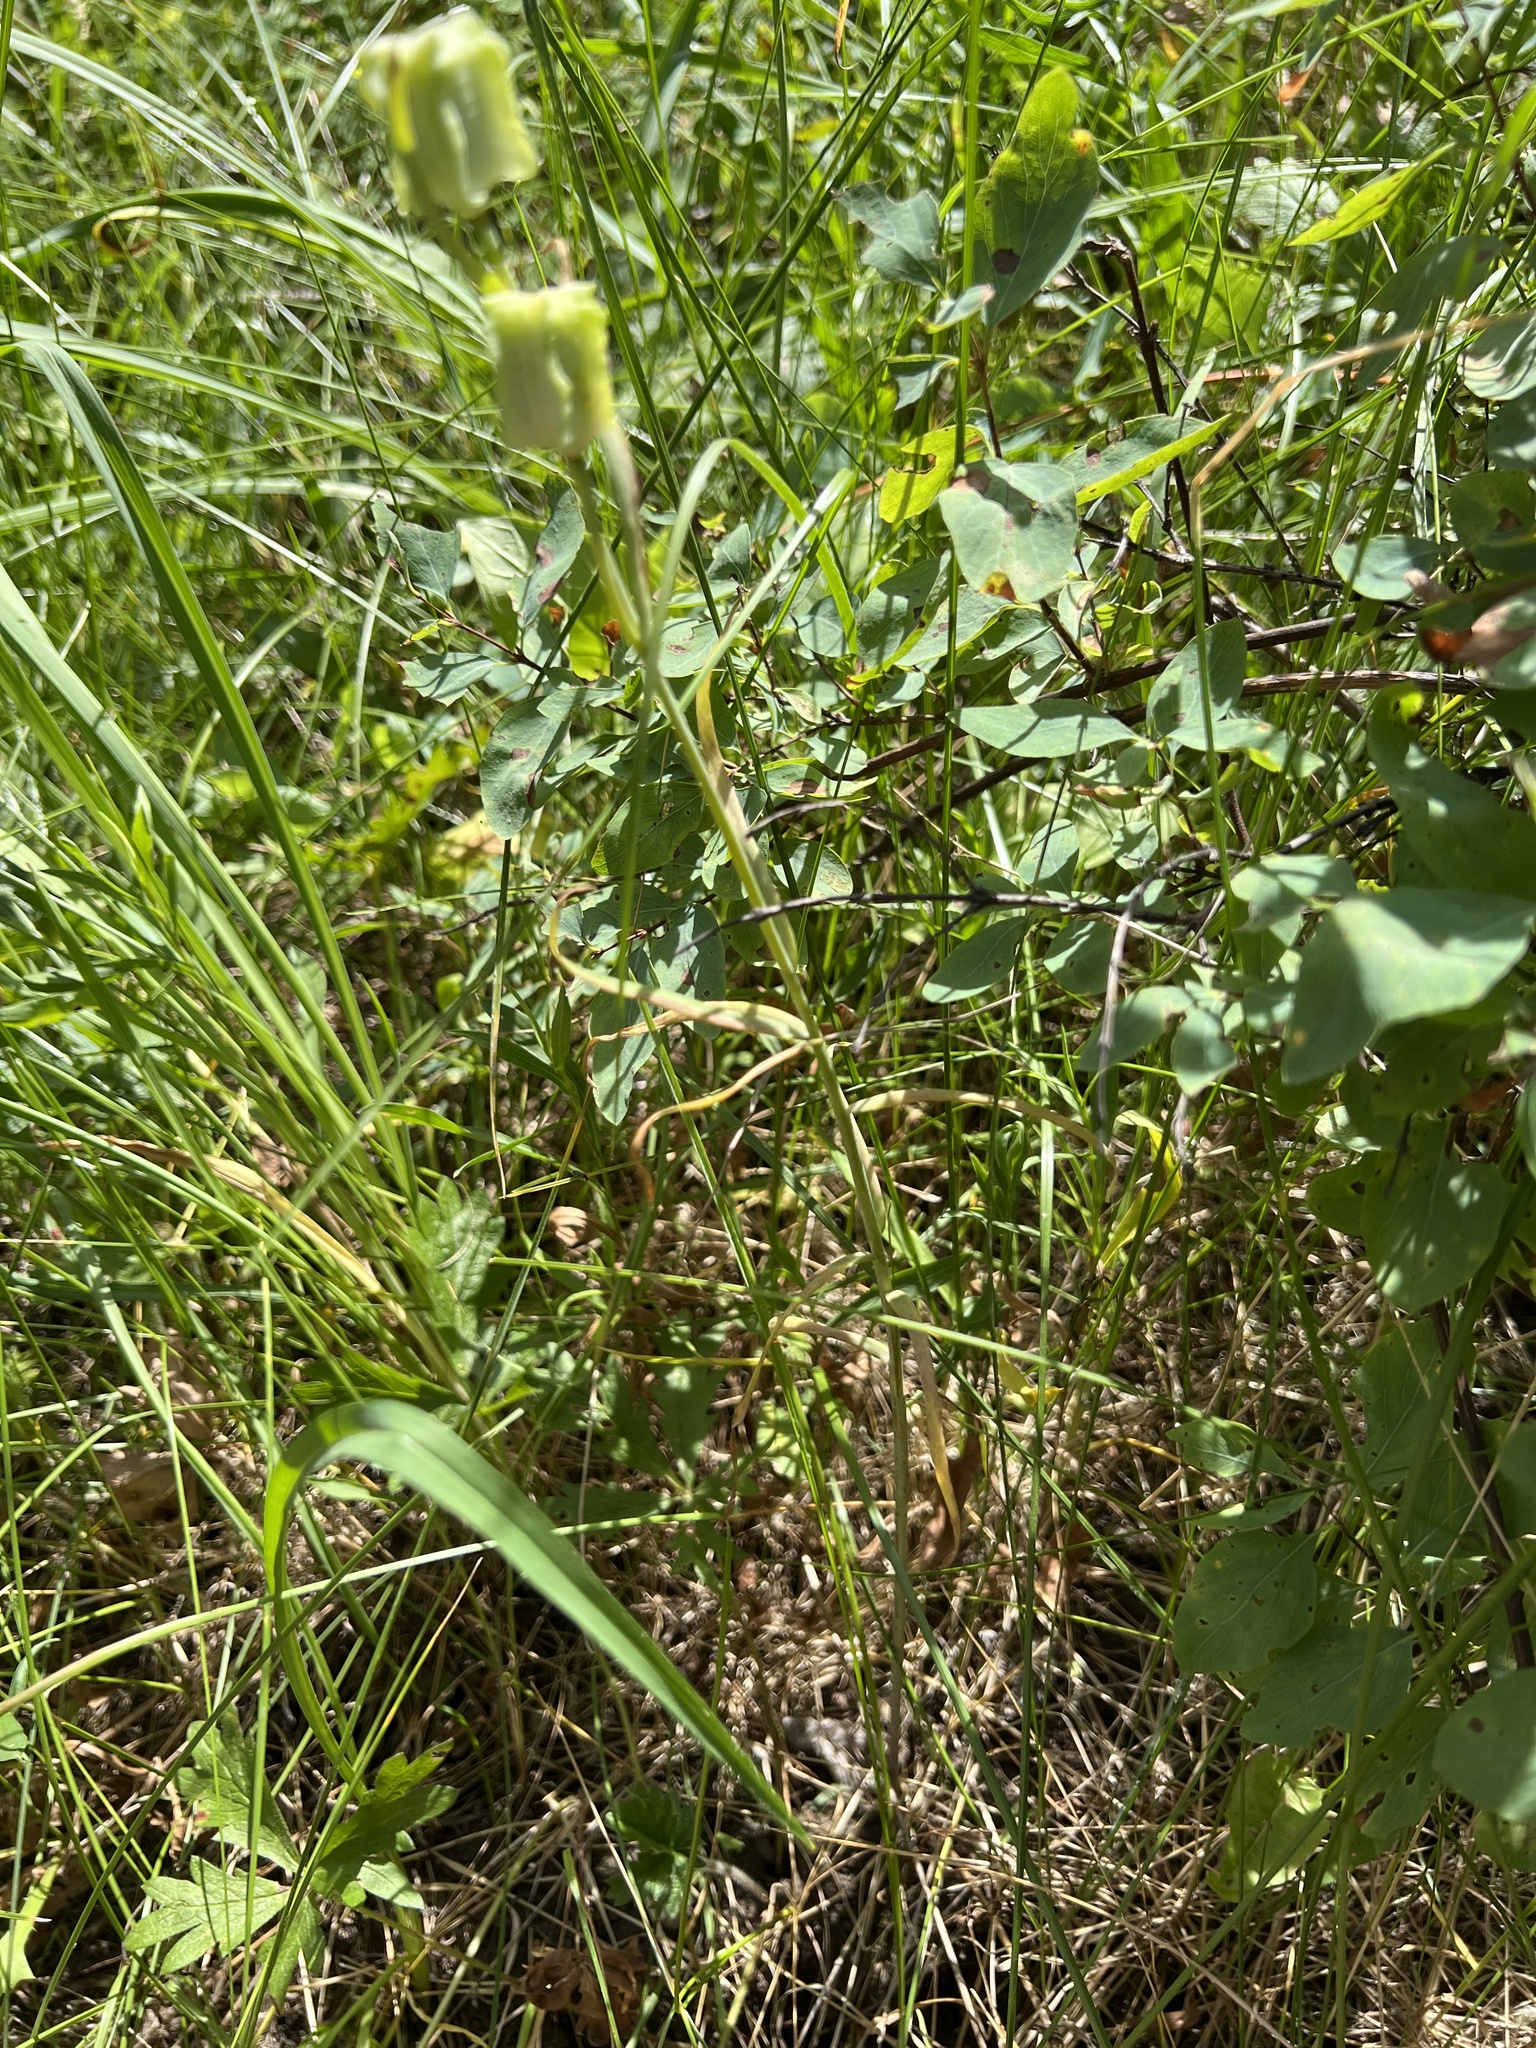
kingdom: Plantae
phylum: Tracheophyta
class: Liliopsida
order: Liliales
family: Liliaceae
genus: Fritillaria
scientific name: Fritillaria atropurpurea
